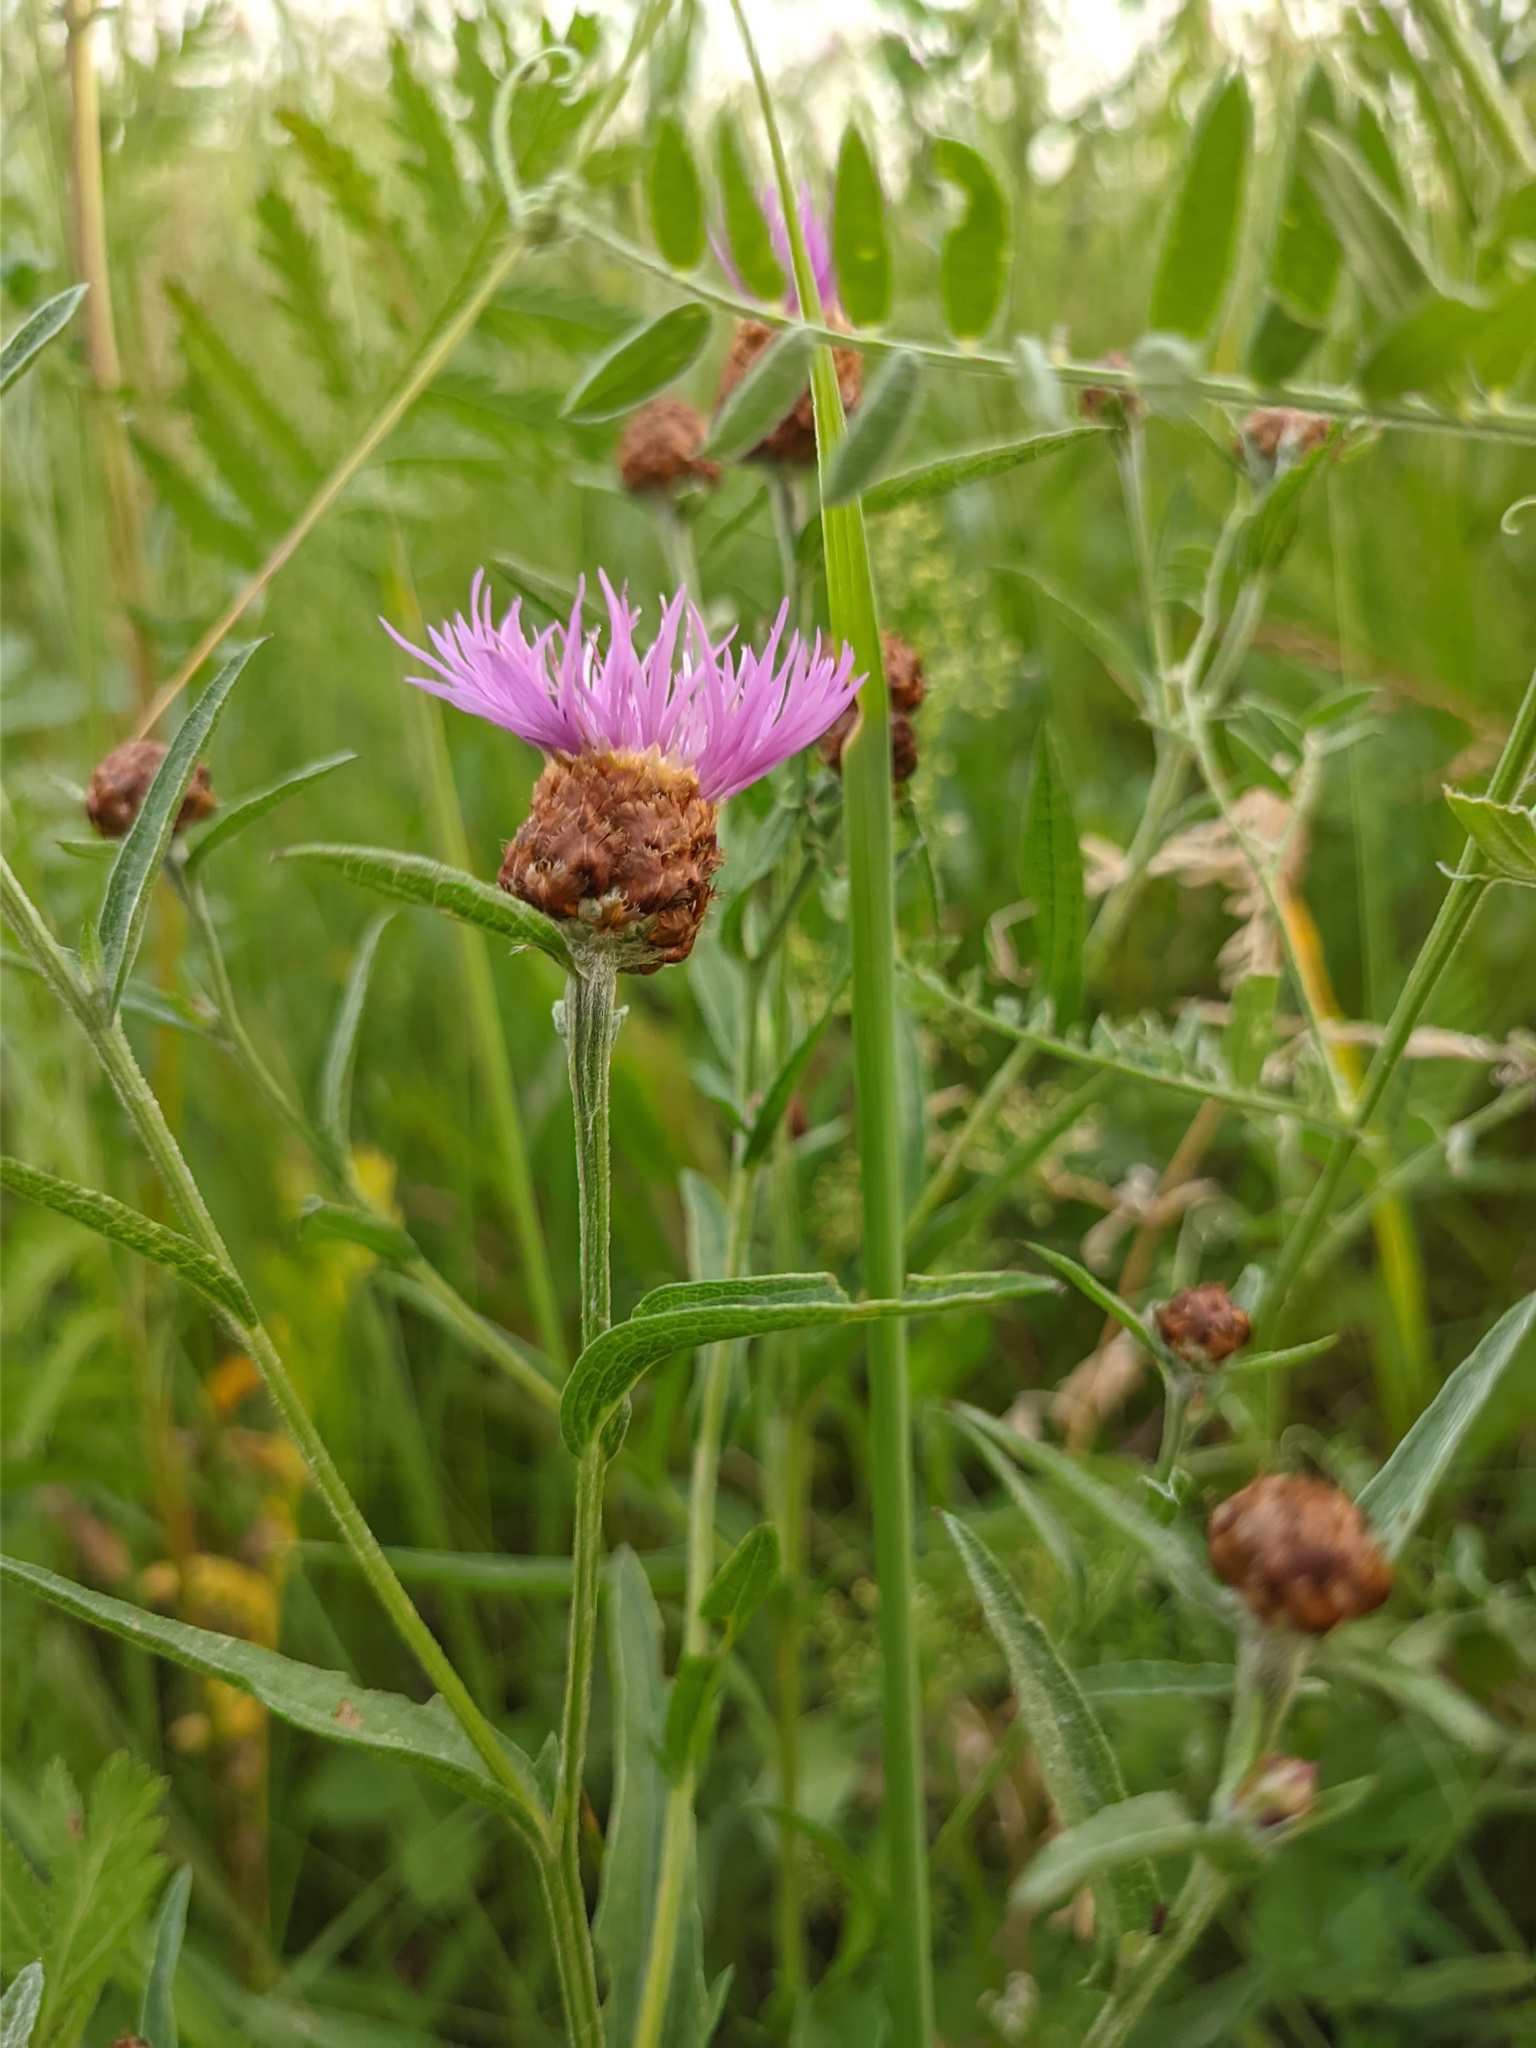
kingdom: Plantae
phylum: Tracheophyta
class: Magnoliopsida
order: Asterales
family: Asteraceae
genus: Centaurea
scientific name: Centaurea jacea
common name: Brown knapweed
